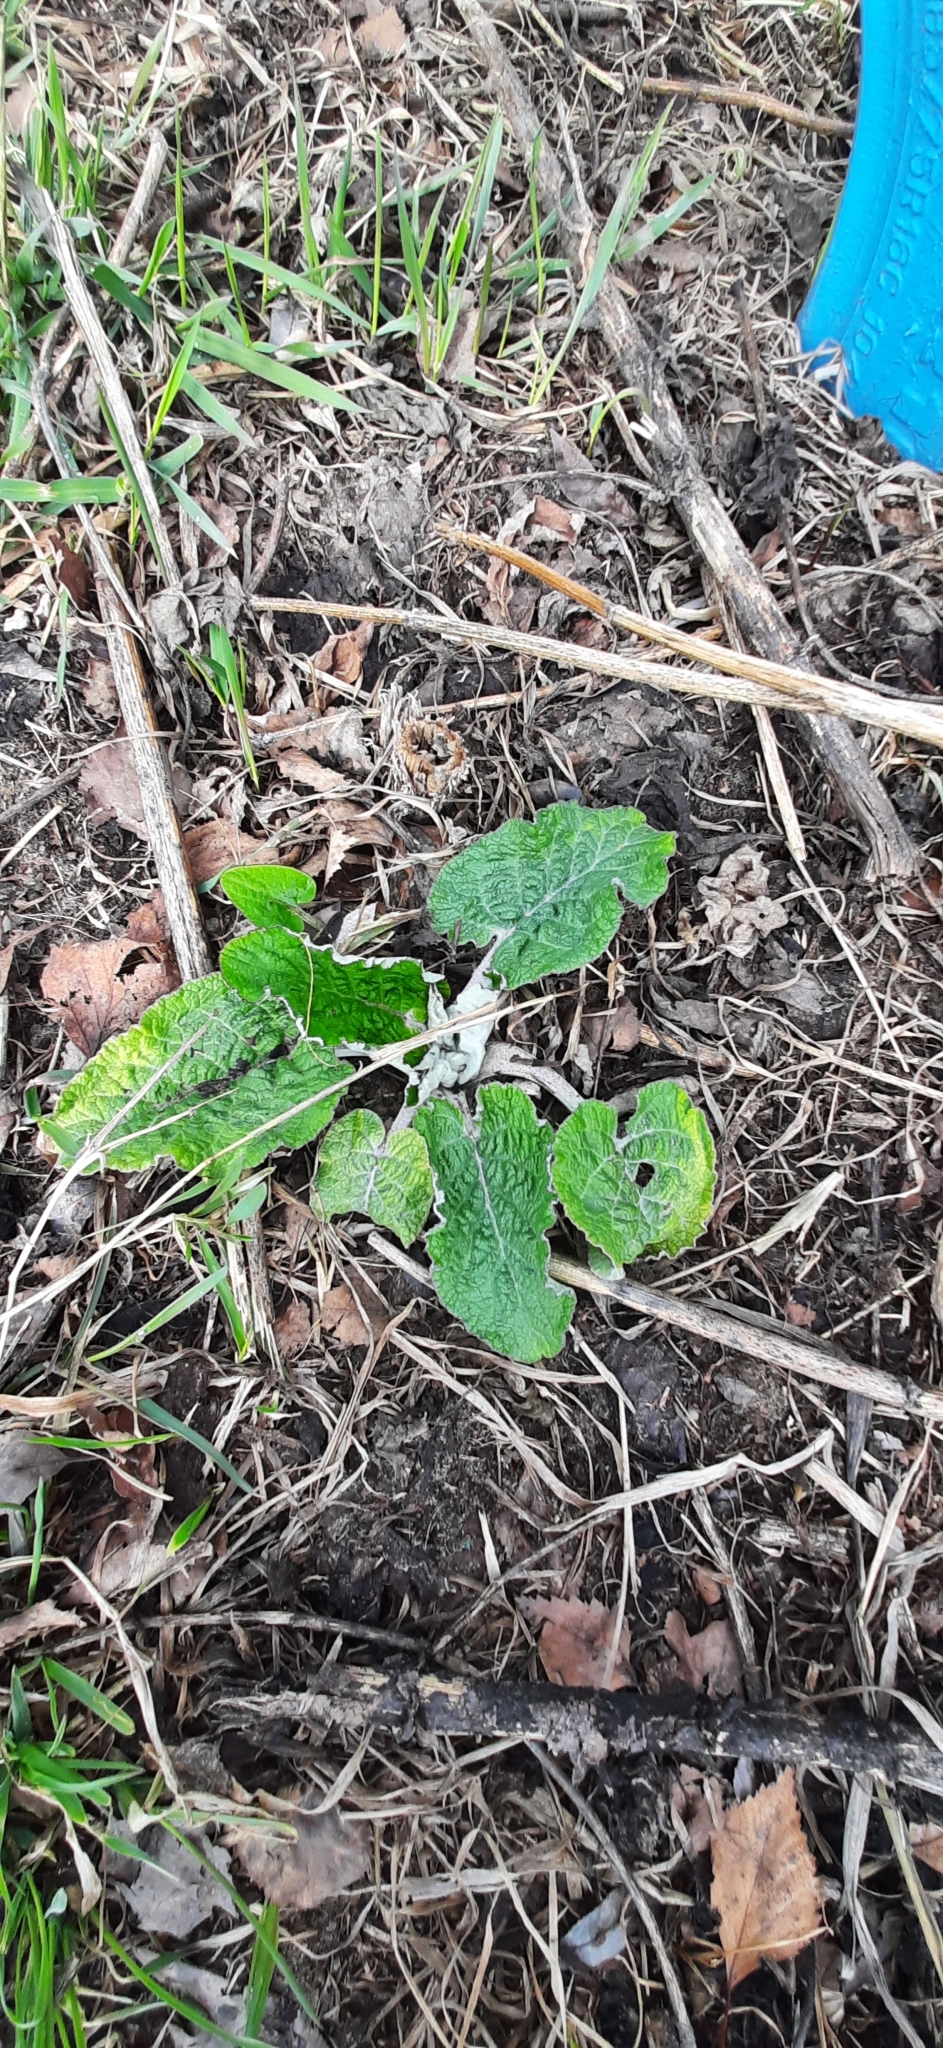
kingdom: Plantae
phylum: Tracheophyta
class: Magnoliopsida
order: Asterales
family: Asteraceae
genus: Arctium
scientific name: Arctium tomentosum
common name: Woolly burdock
